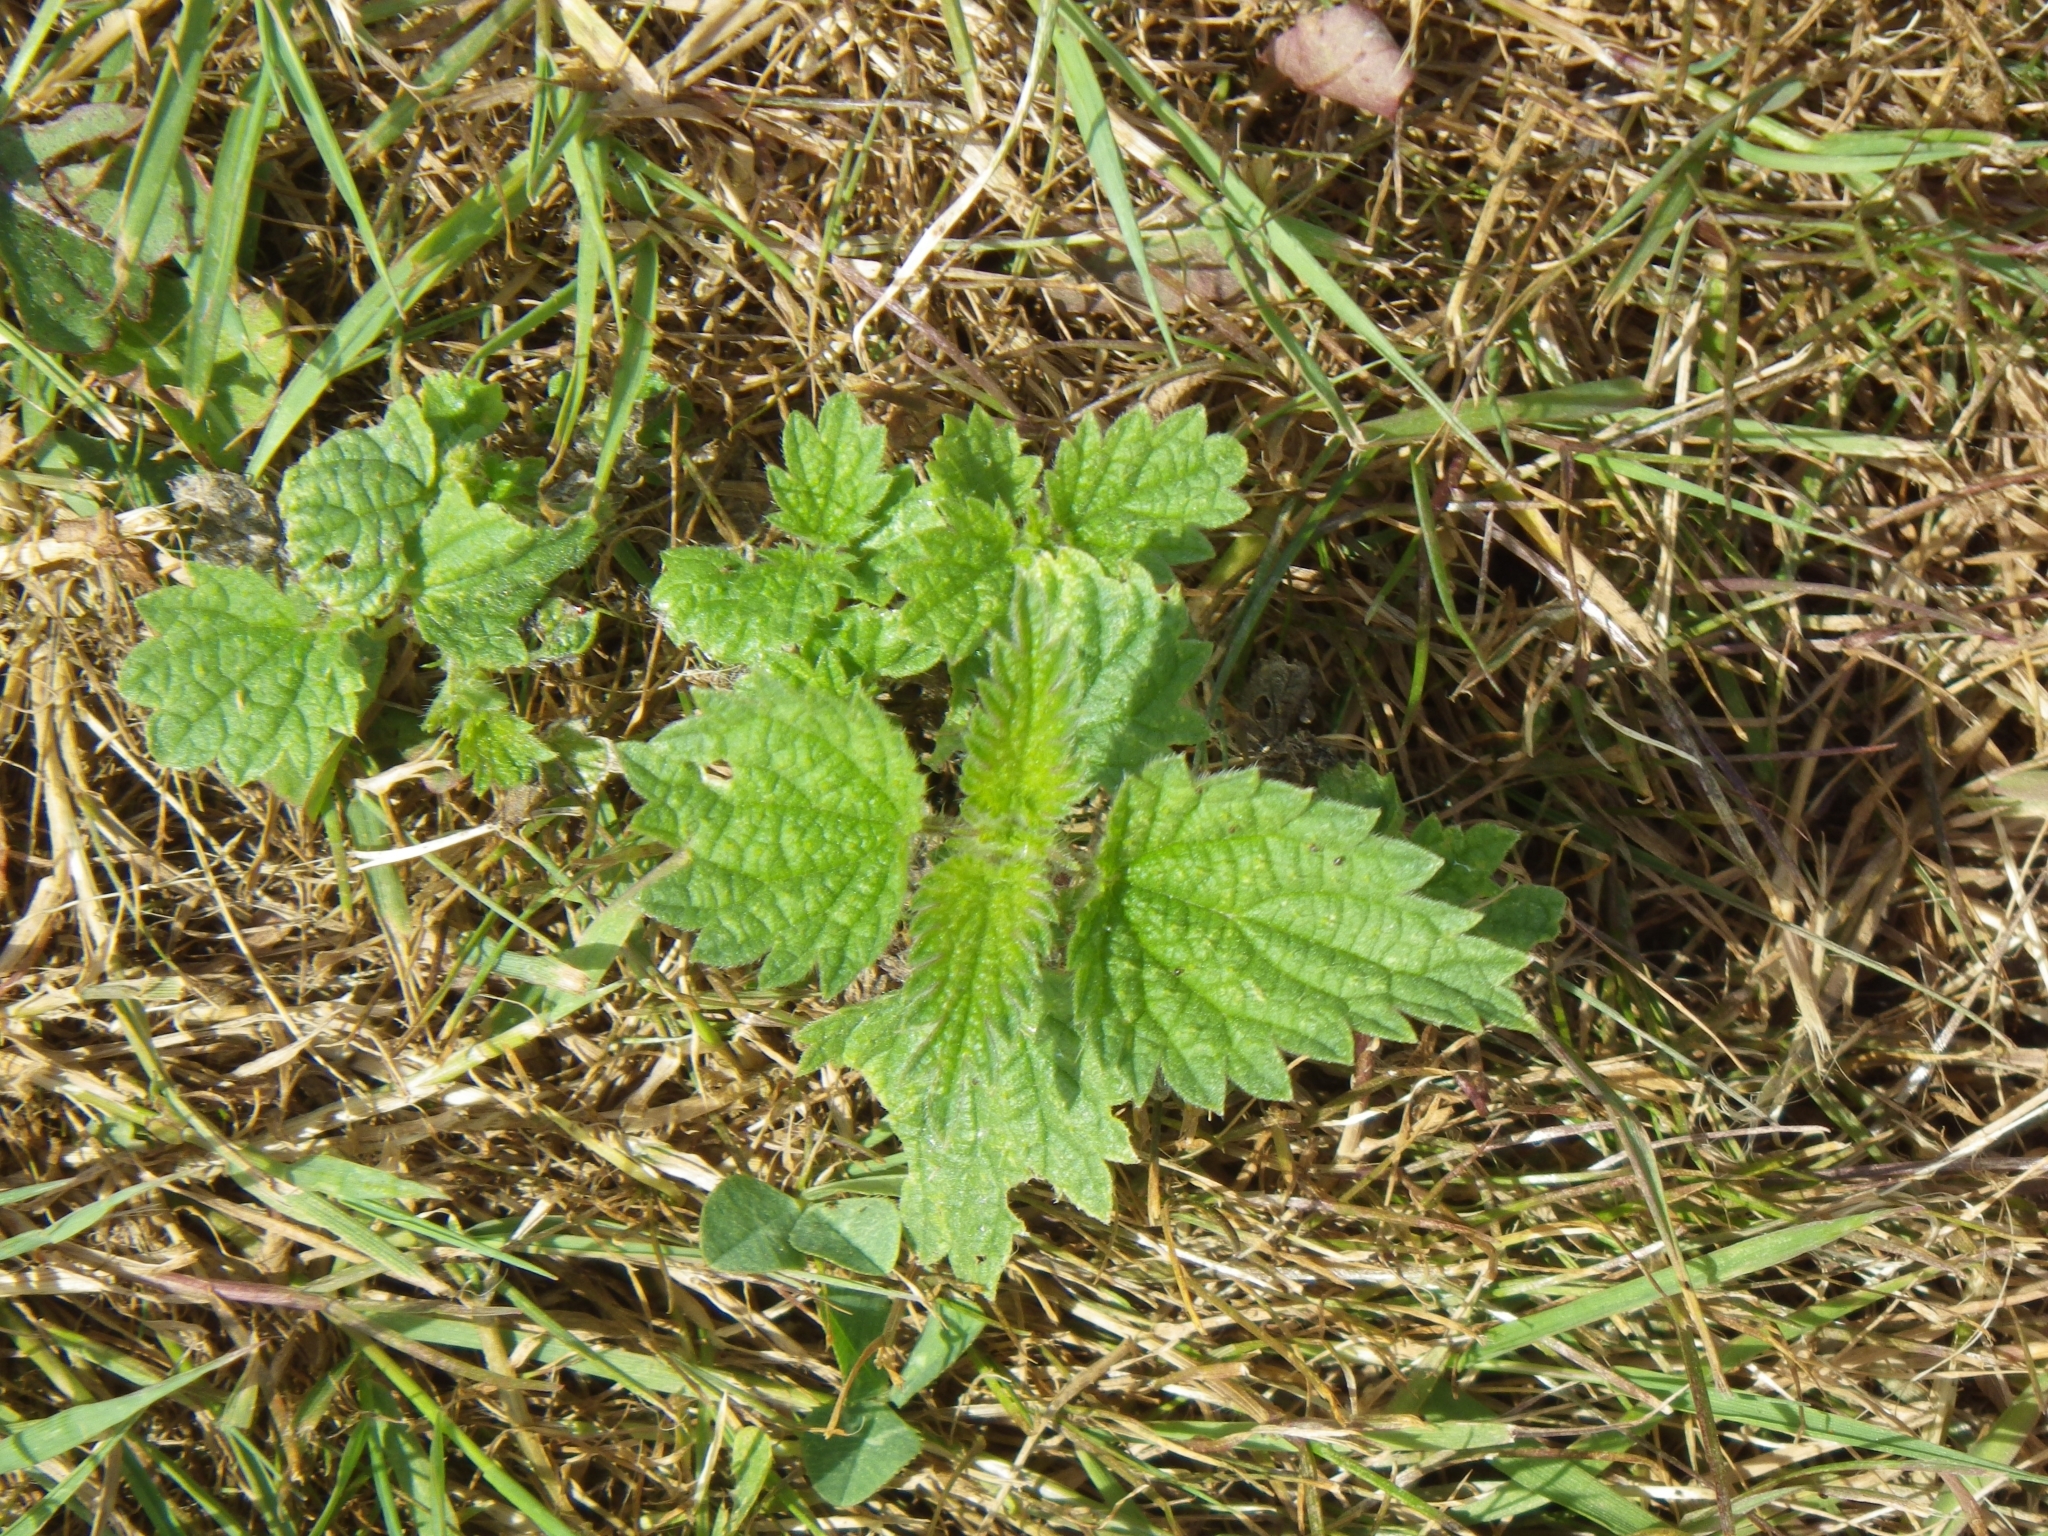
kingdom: Plantae
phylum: Tracheophyta
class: Magnoliopsida
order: Rosales
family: Urticaceae
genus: Urtica
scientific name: Urtica dioica
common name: Common nettle
